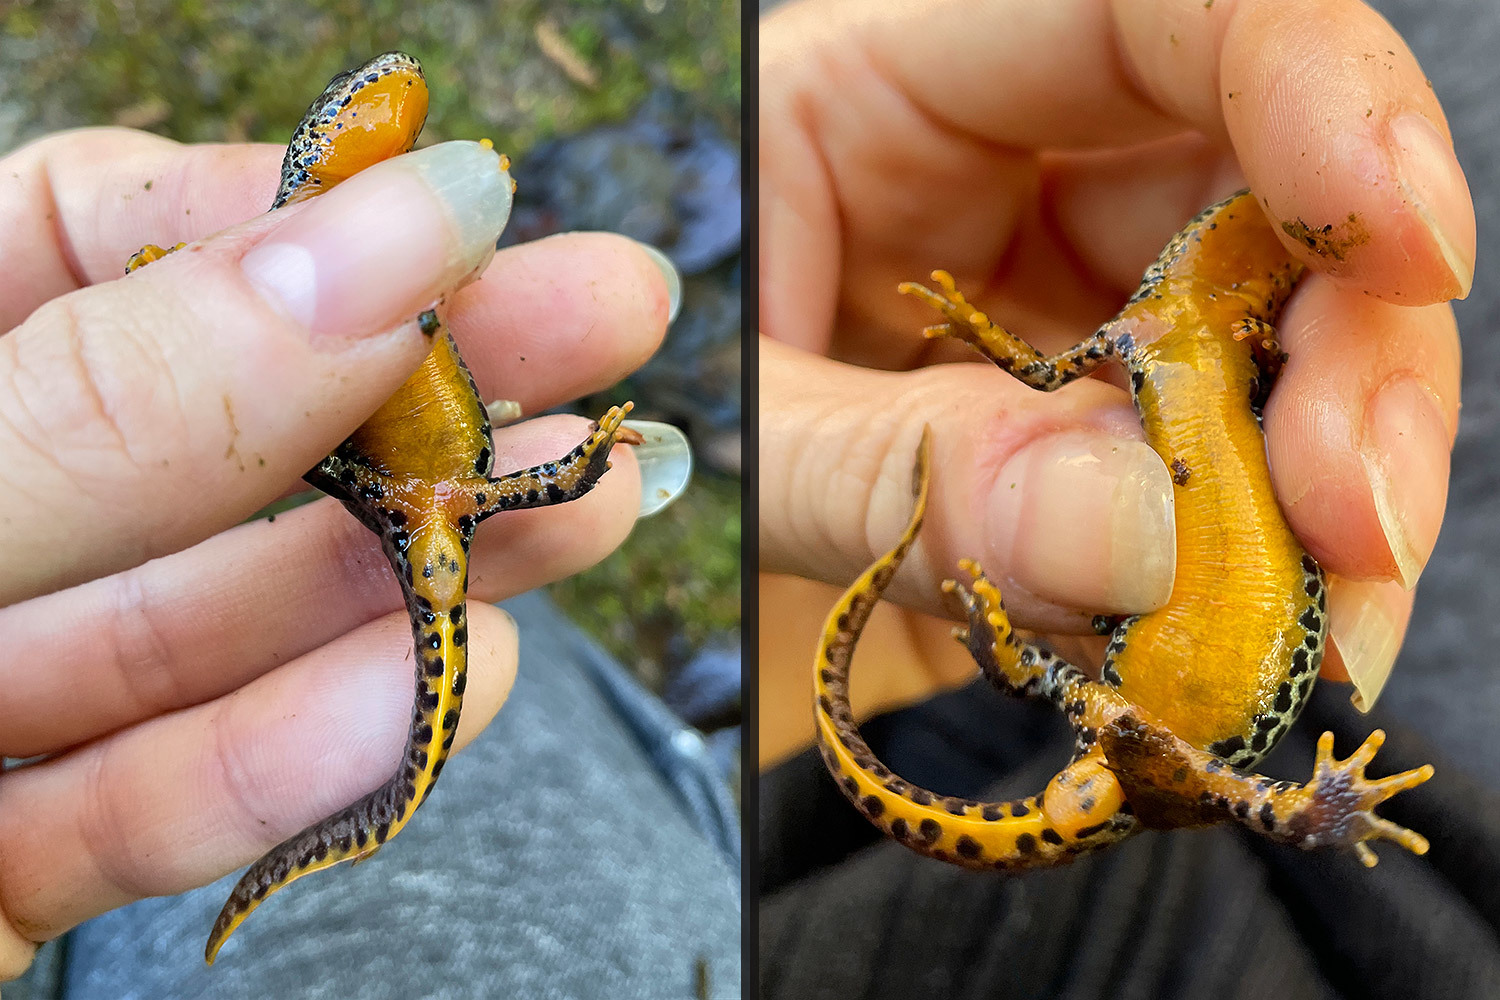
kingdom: Animalia
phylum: Chordata
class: Amphibia
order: Caudata
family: Salamandridae
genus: Ichthyosaura
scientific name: Ichthyosaura alpestris
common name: Alpine newt
